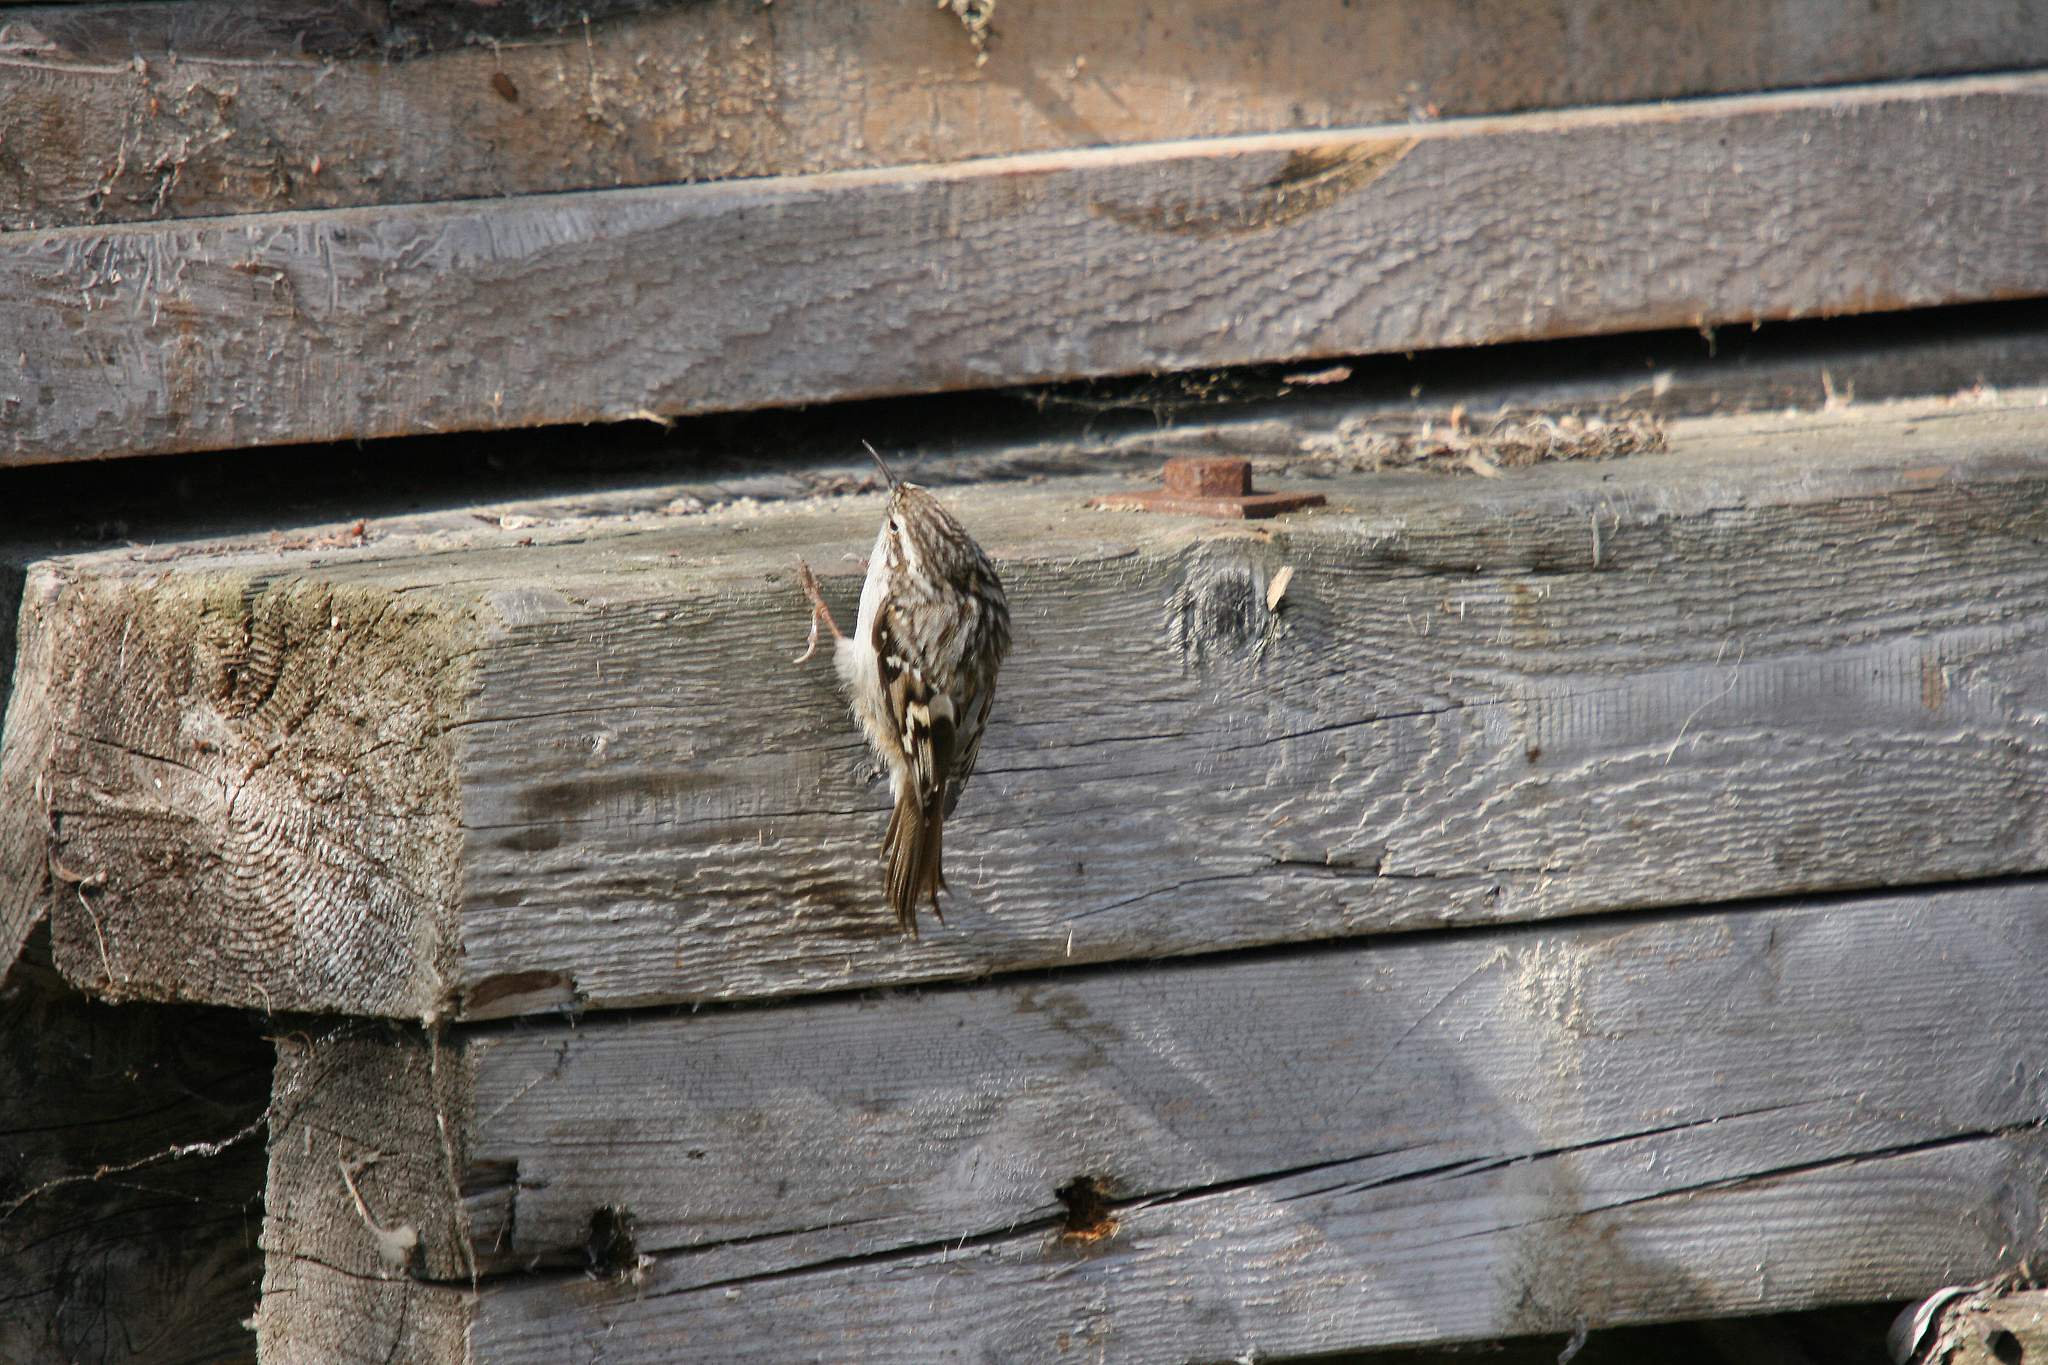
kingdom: Animalia
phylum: Chordata
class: Aves
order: Passeriformes
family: Certhiidae
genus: Certhia
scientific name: Certhia brachydactyla
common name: Short-toed treecreeper
